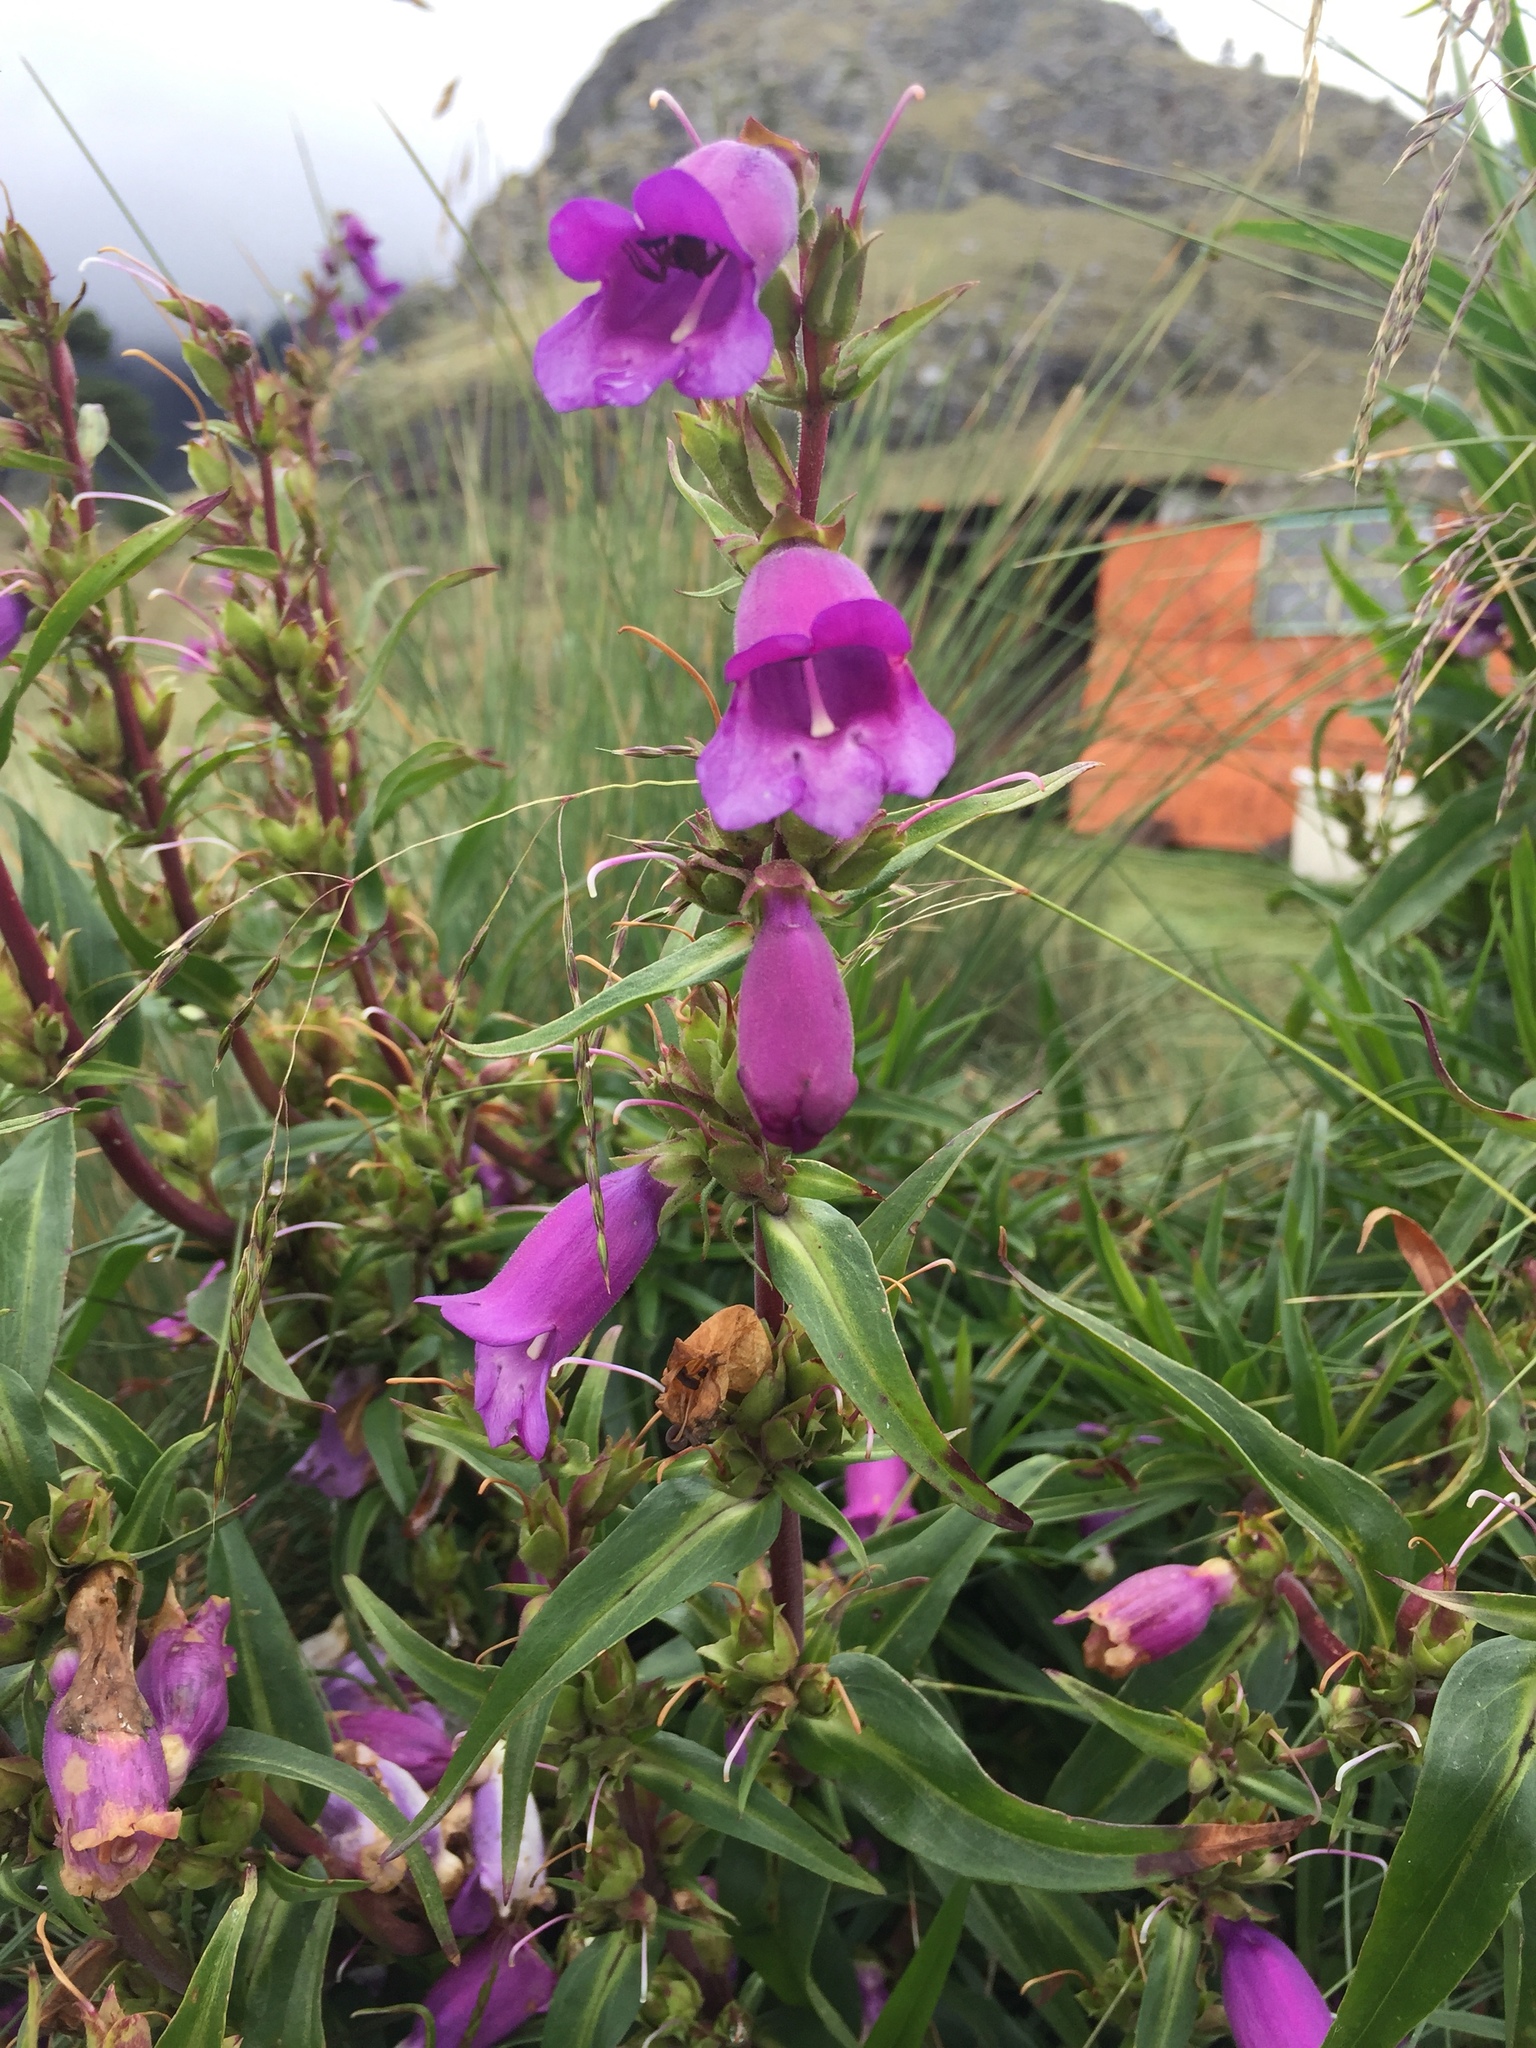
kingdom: Plantae
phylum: Tracheophyta
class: Magnoliopsida
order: Lamiales
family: Plantaginaceae
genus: Penstemon
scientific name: Penstemon gentianoides
